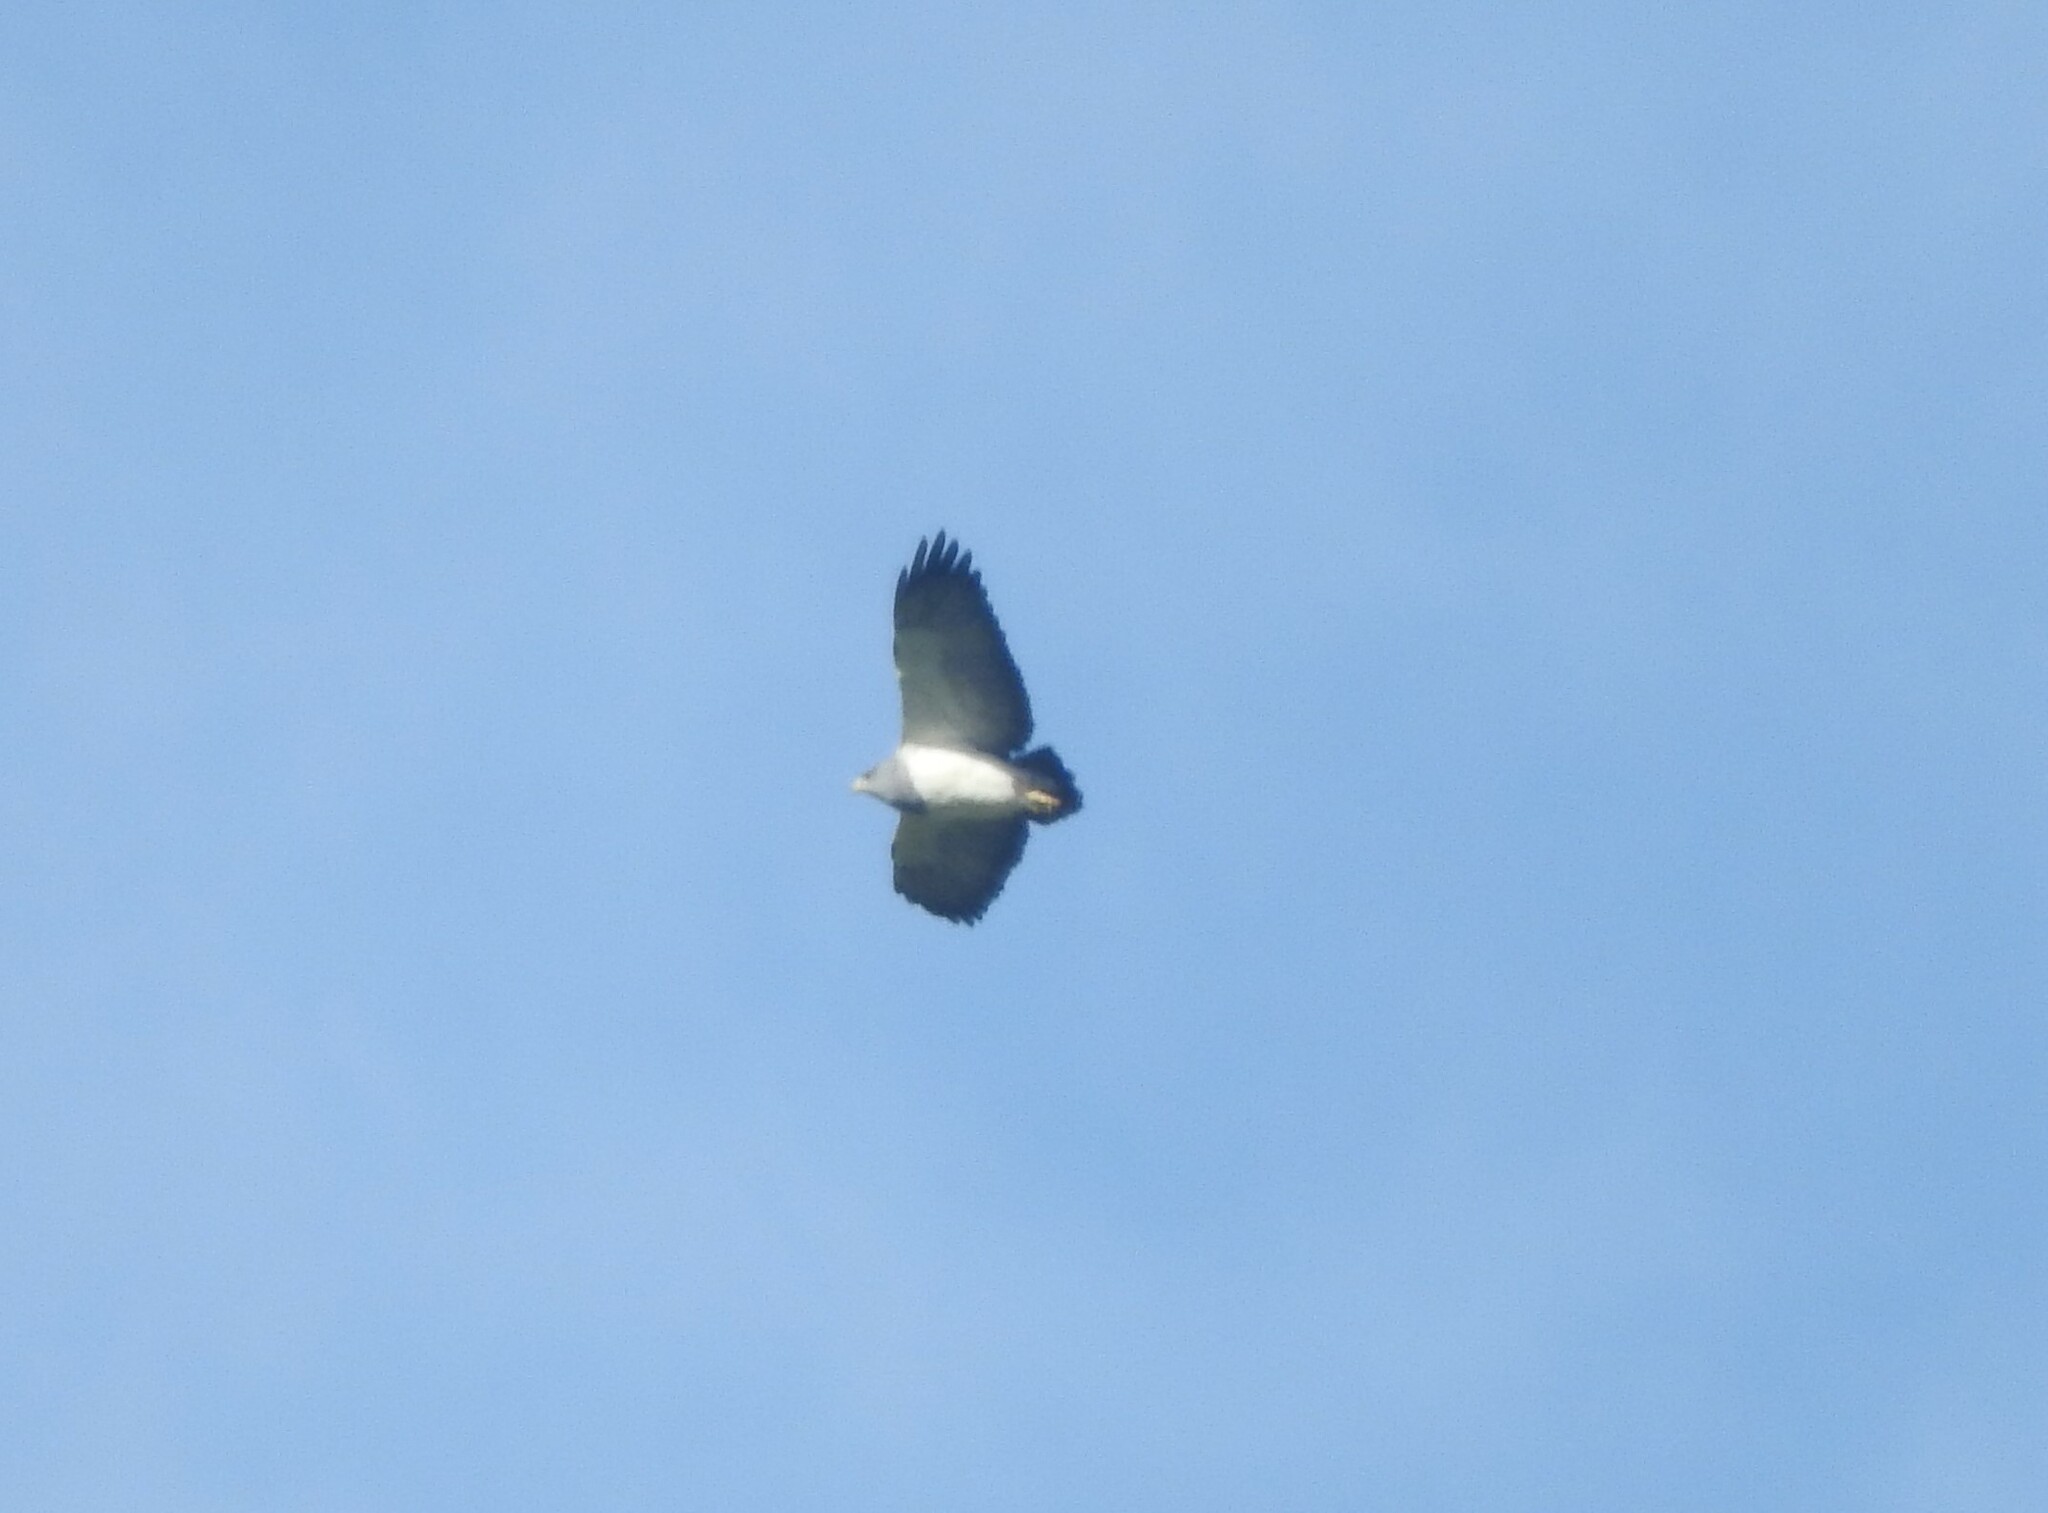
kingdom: Animalia
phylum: Chordata
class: Aves
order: Accipitriformes
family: Accipitridae
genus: Geranoaetus
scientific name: Geranoaetus melanoleucus
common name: Black-chested buzzard-eagle
